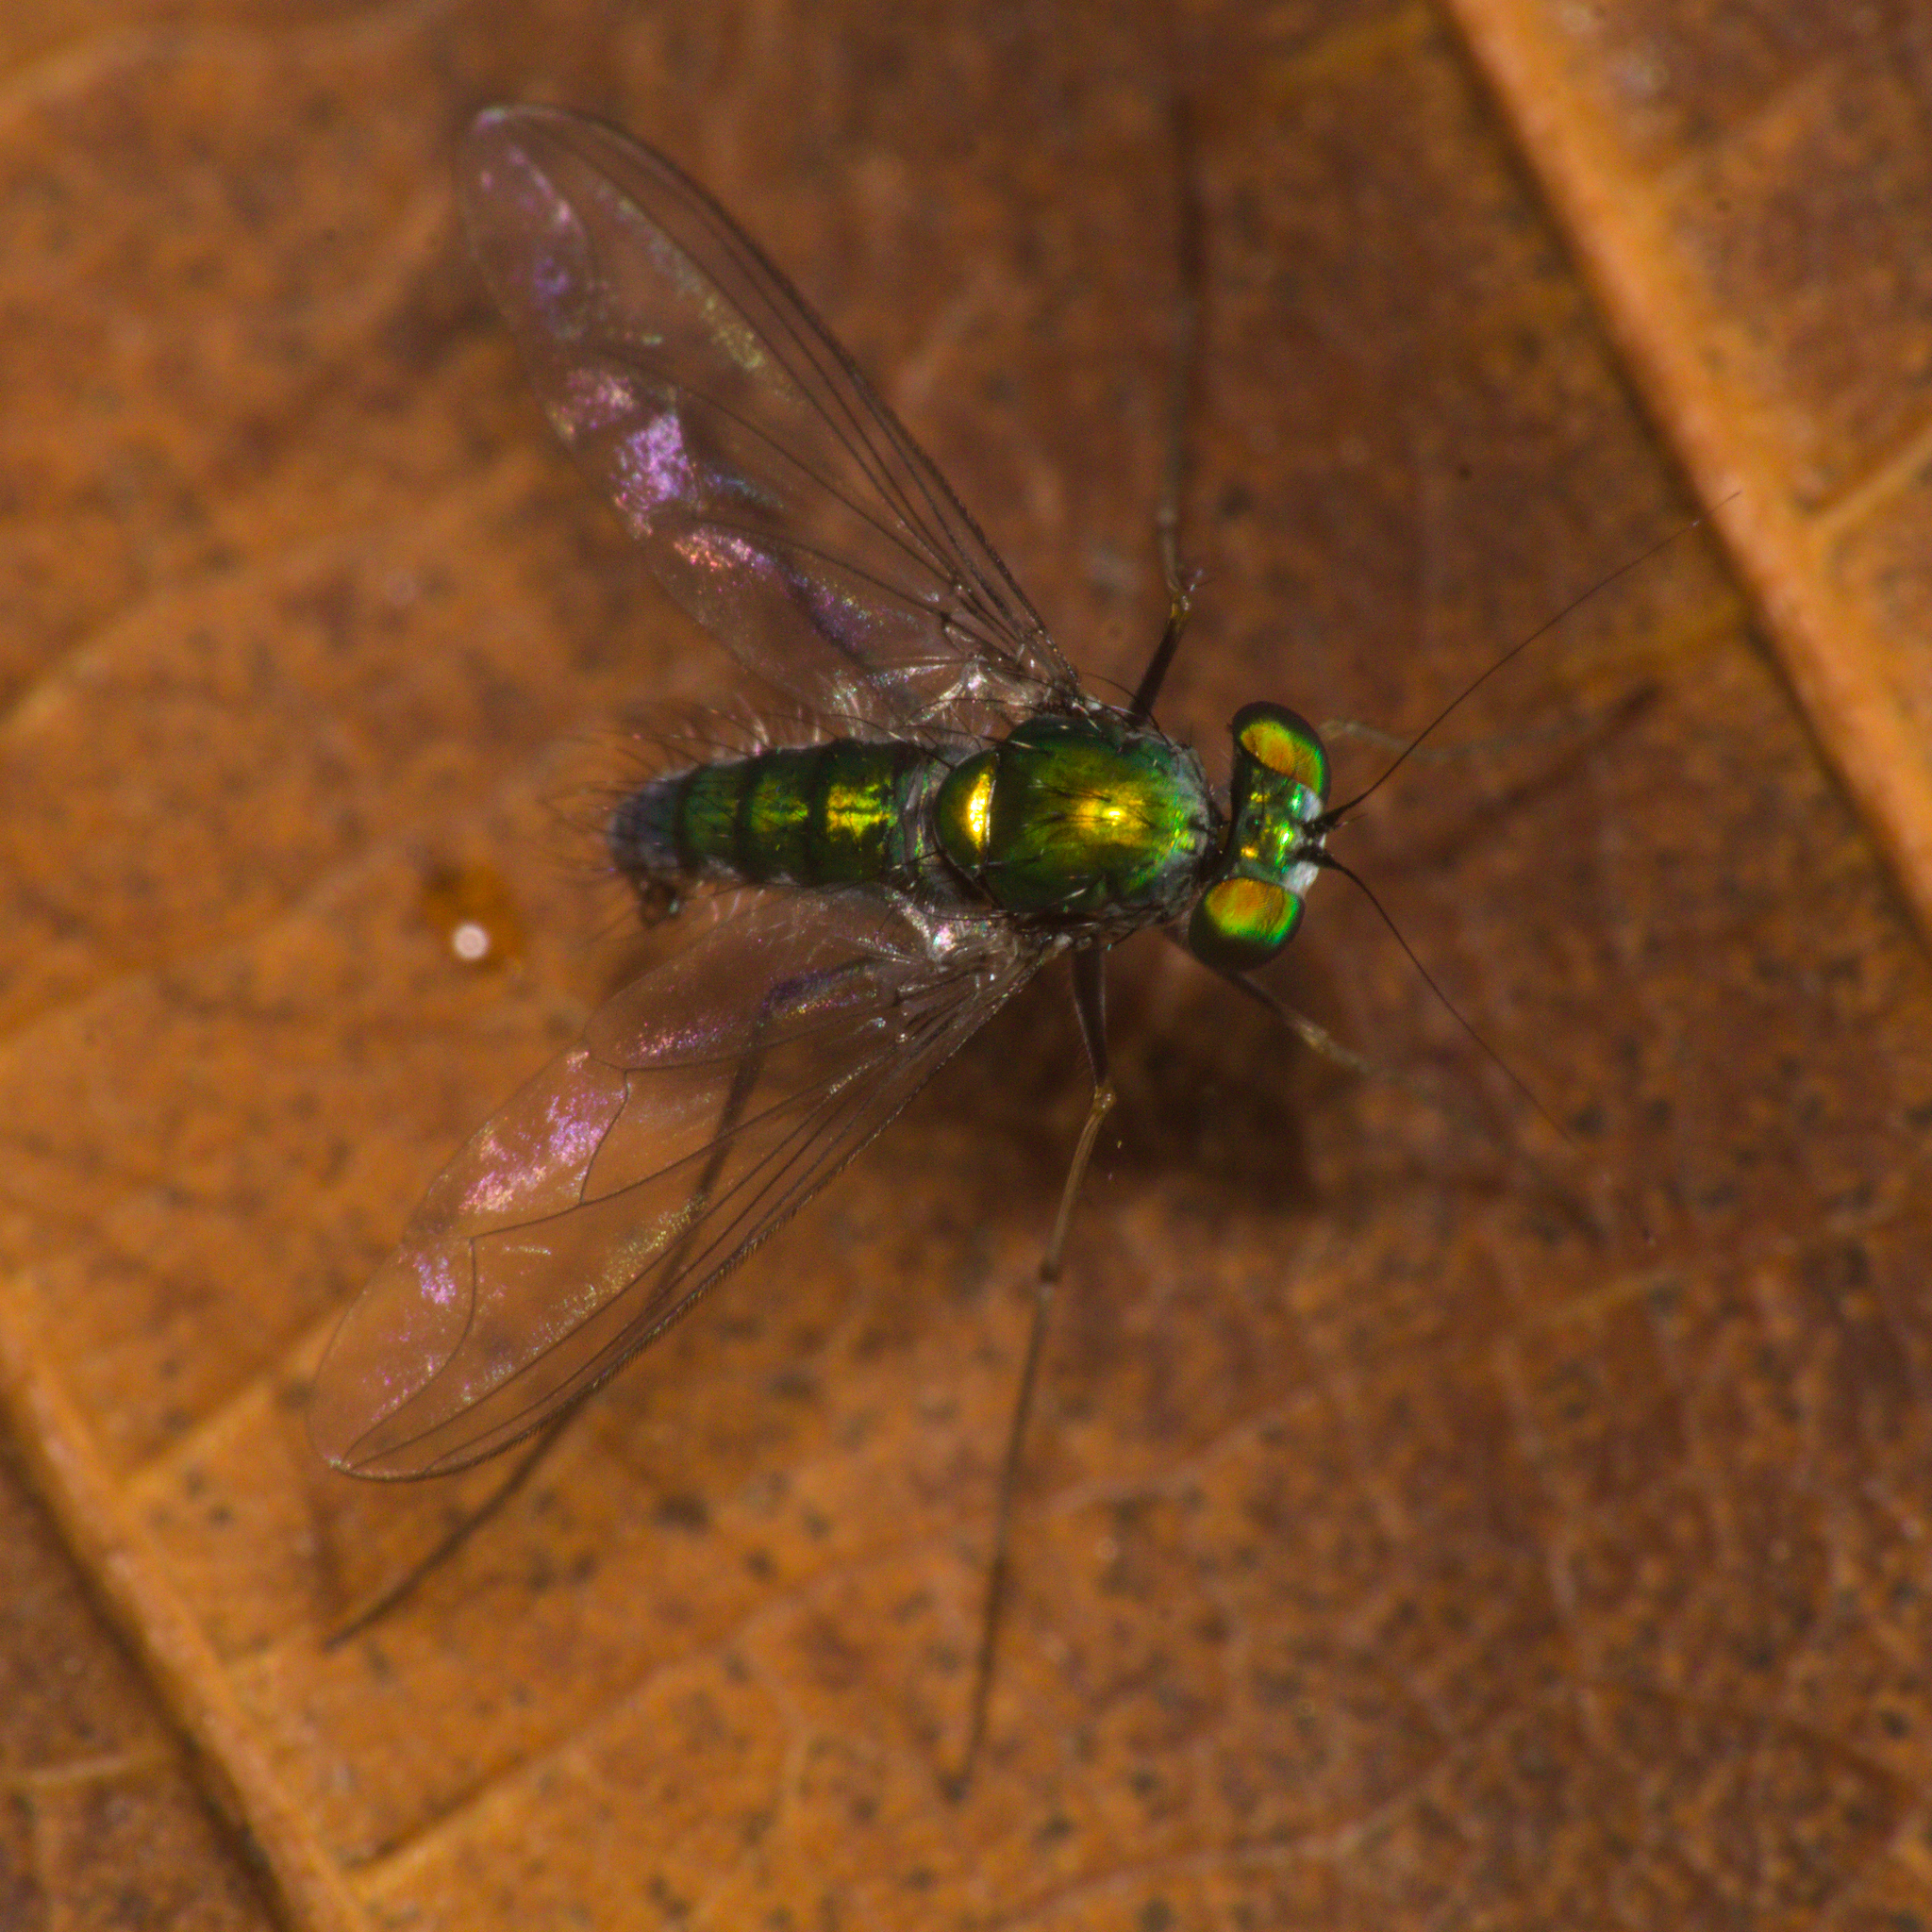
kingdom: Animalia
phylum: Arthropoda
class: Insecta
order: Diptera
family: Dolichopodidae
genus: Chrysosoma
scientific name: Chrysosoma globifer
